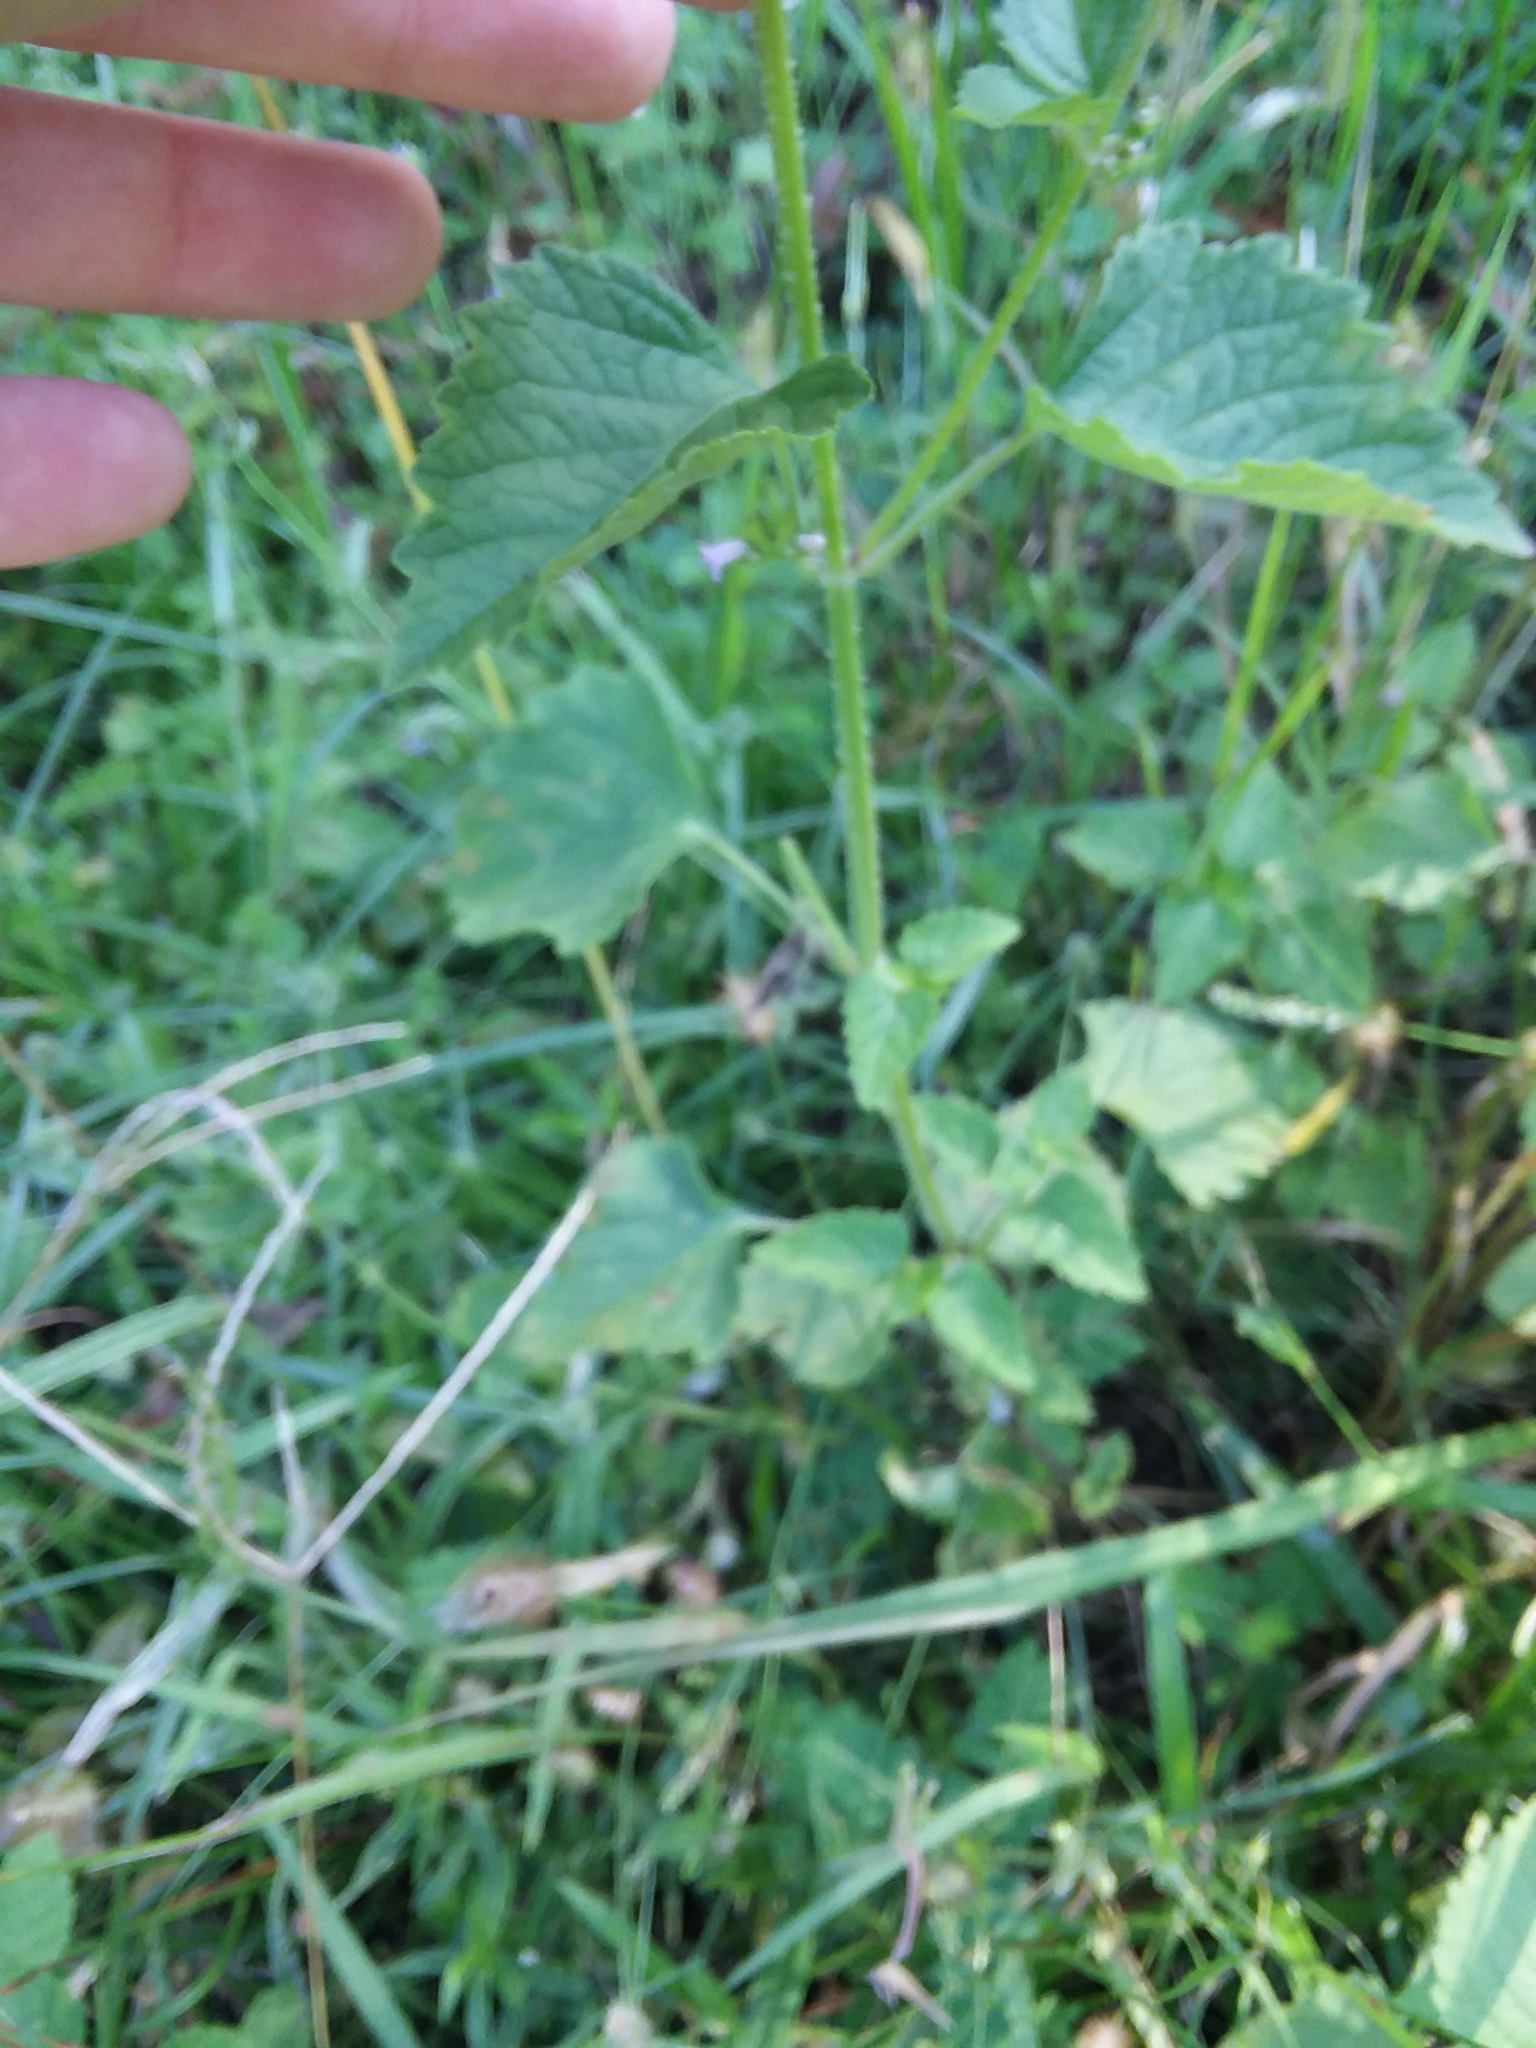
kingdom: Plantae
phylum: Tracheophyta
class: Magnoliopsida
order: Lamiales
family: Lamiaceae
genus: Cantinoa
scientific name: Cantinoa mutabilis
